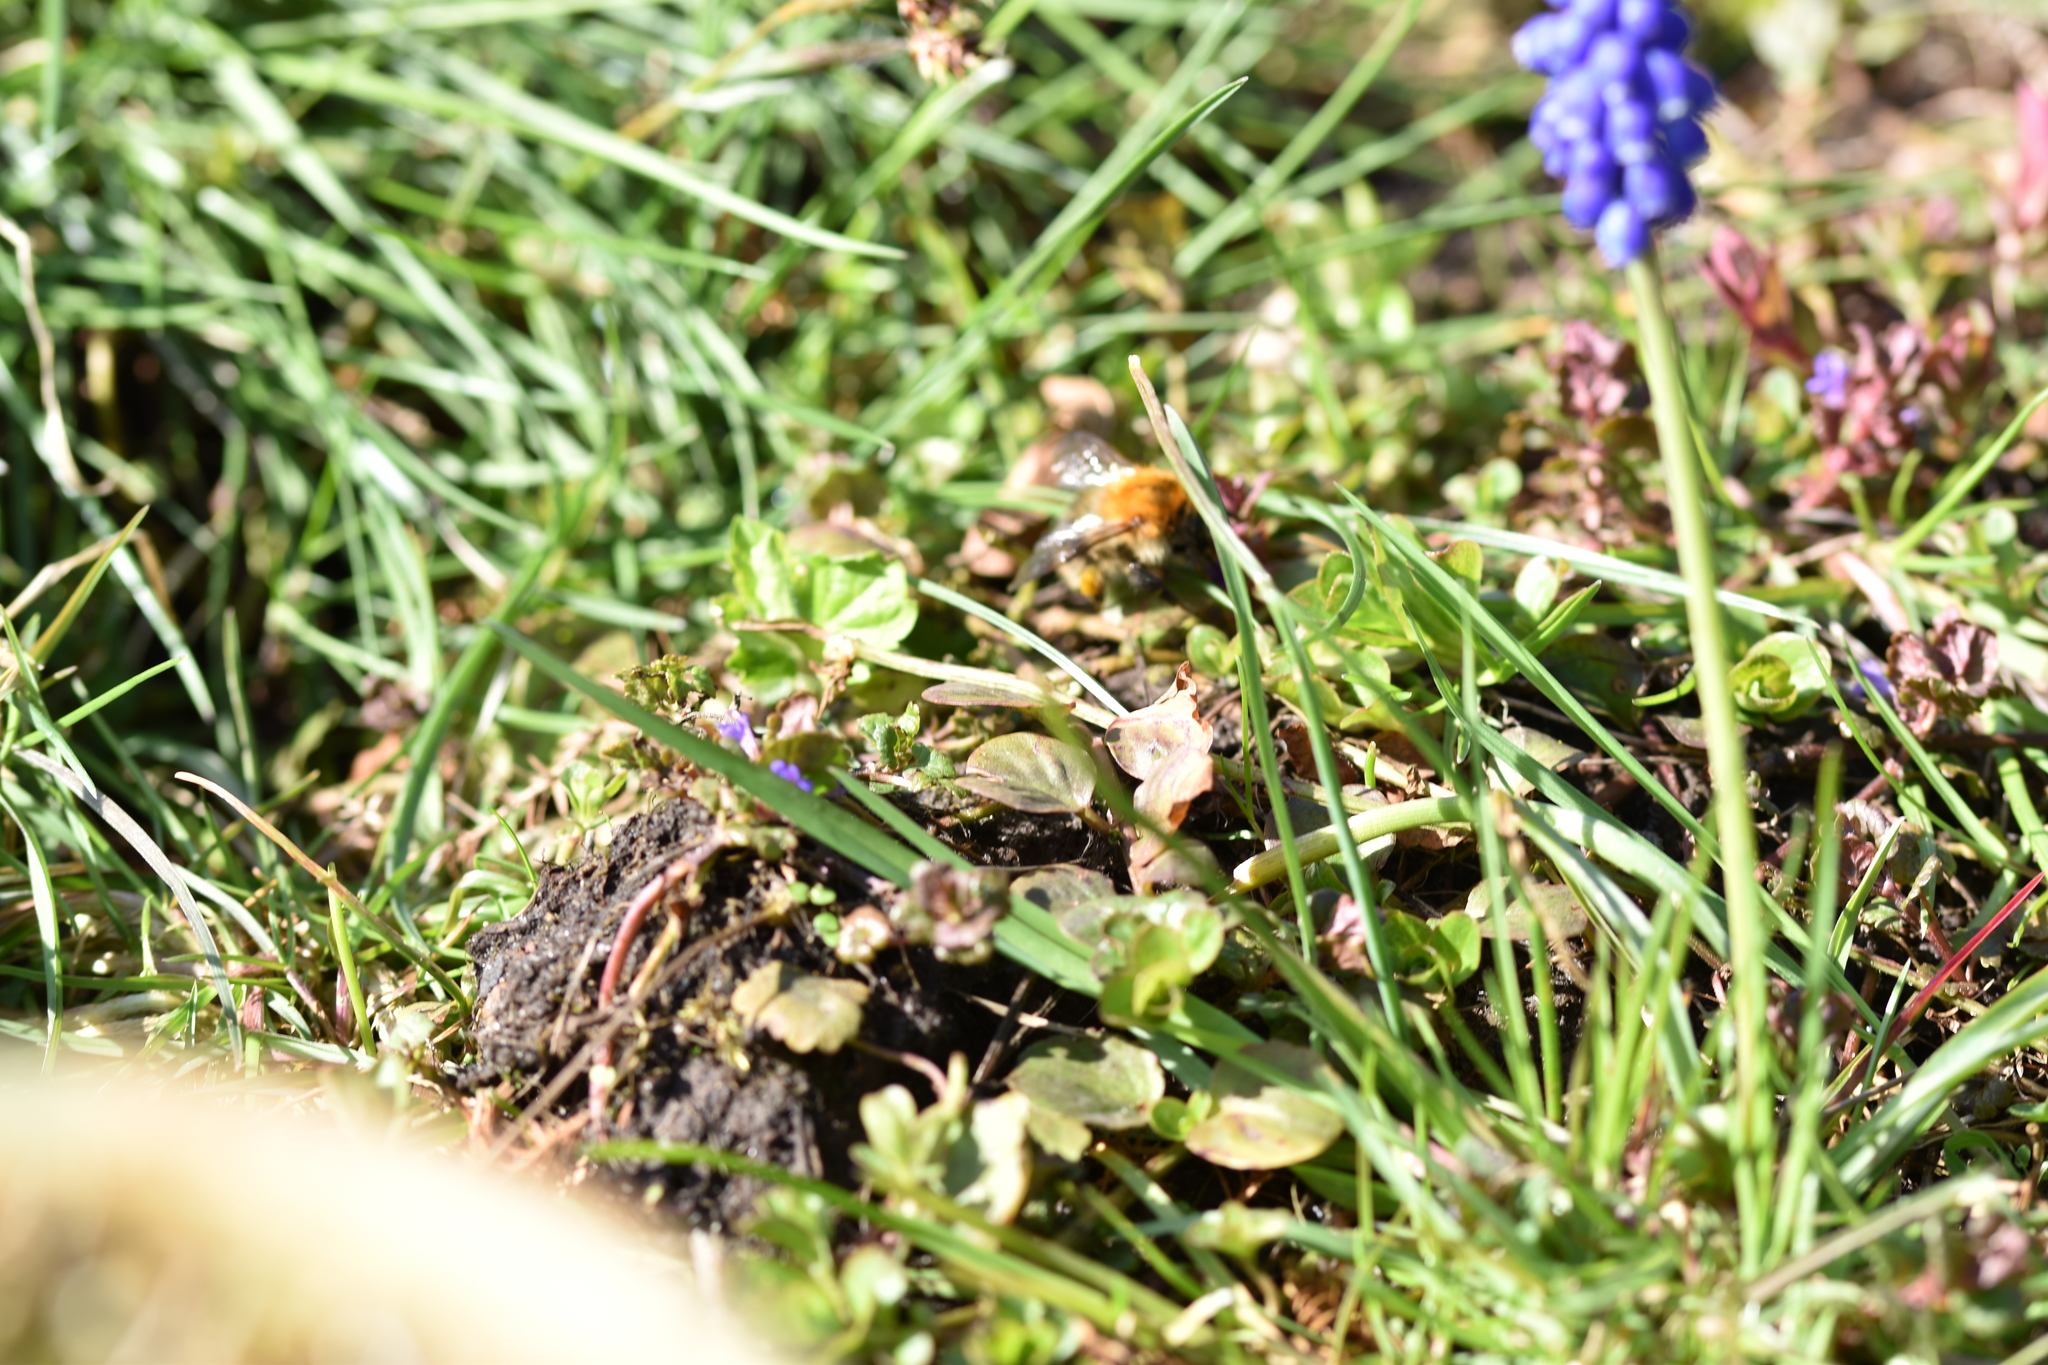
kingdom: Animalia
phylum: Arthropoda
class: Insecta
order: Hymenoptera
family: Apidae
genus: Bombus
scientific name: Bombus pascuorum
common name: Common carder bee
